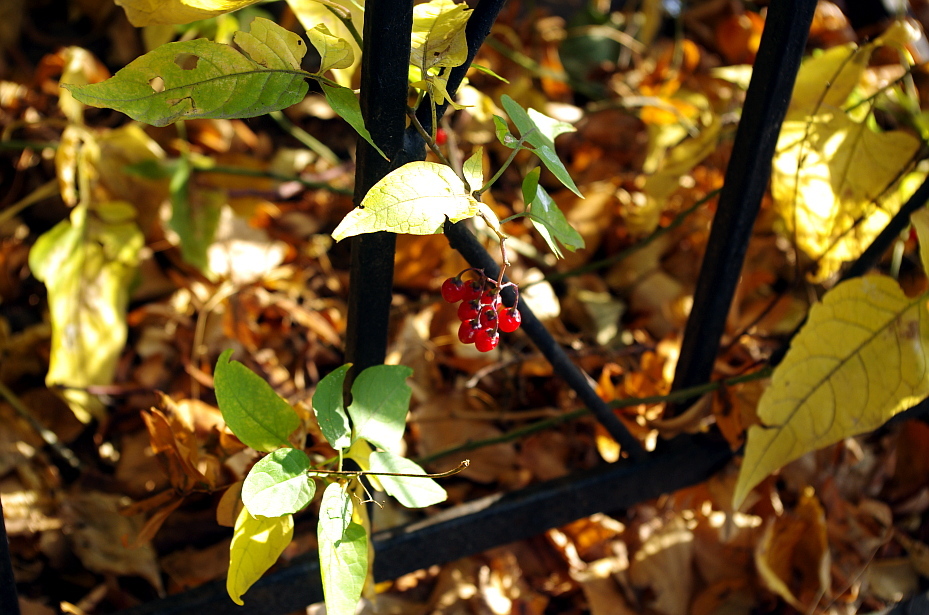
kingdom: Plantae
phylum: Tracheophyta
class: Magnoliopsida
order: Solanales
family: Solanaceae
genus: Solanum
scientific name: Solanum dulcamara
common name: Climbing nightshade
